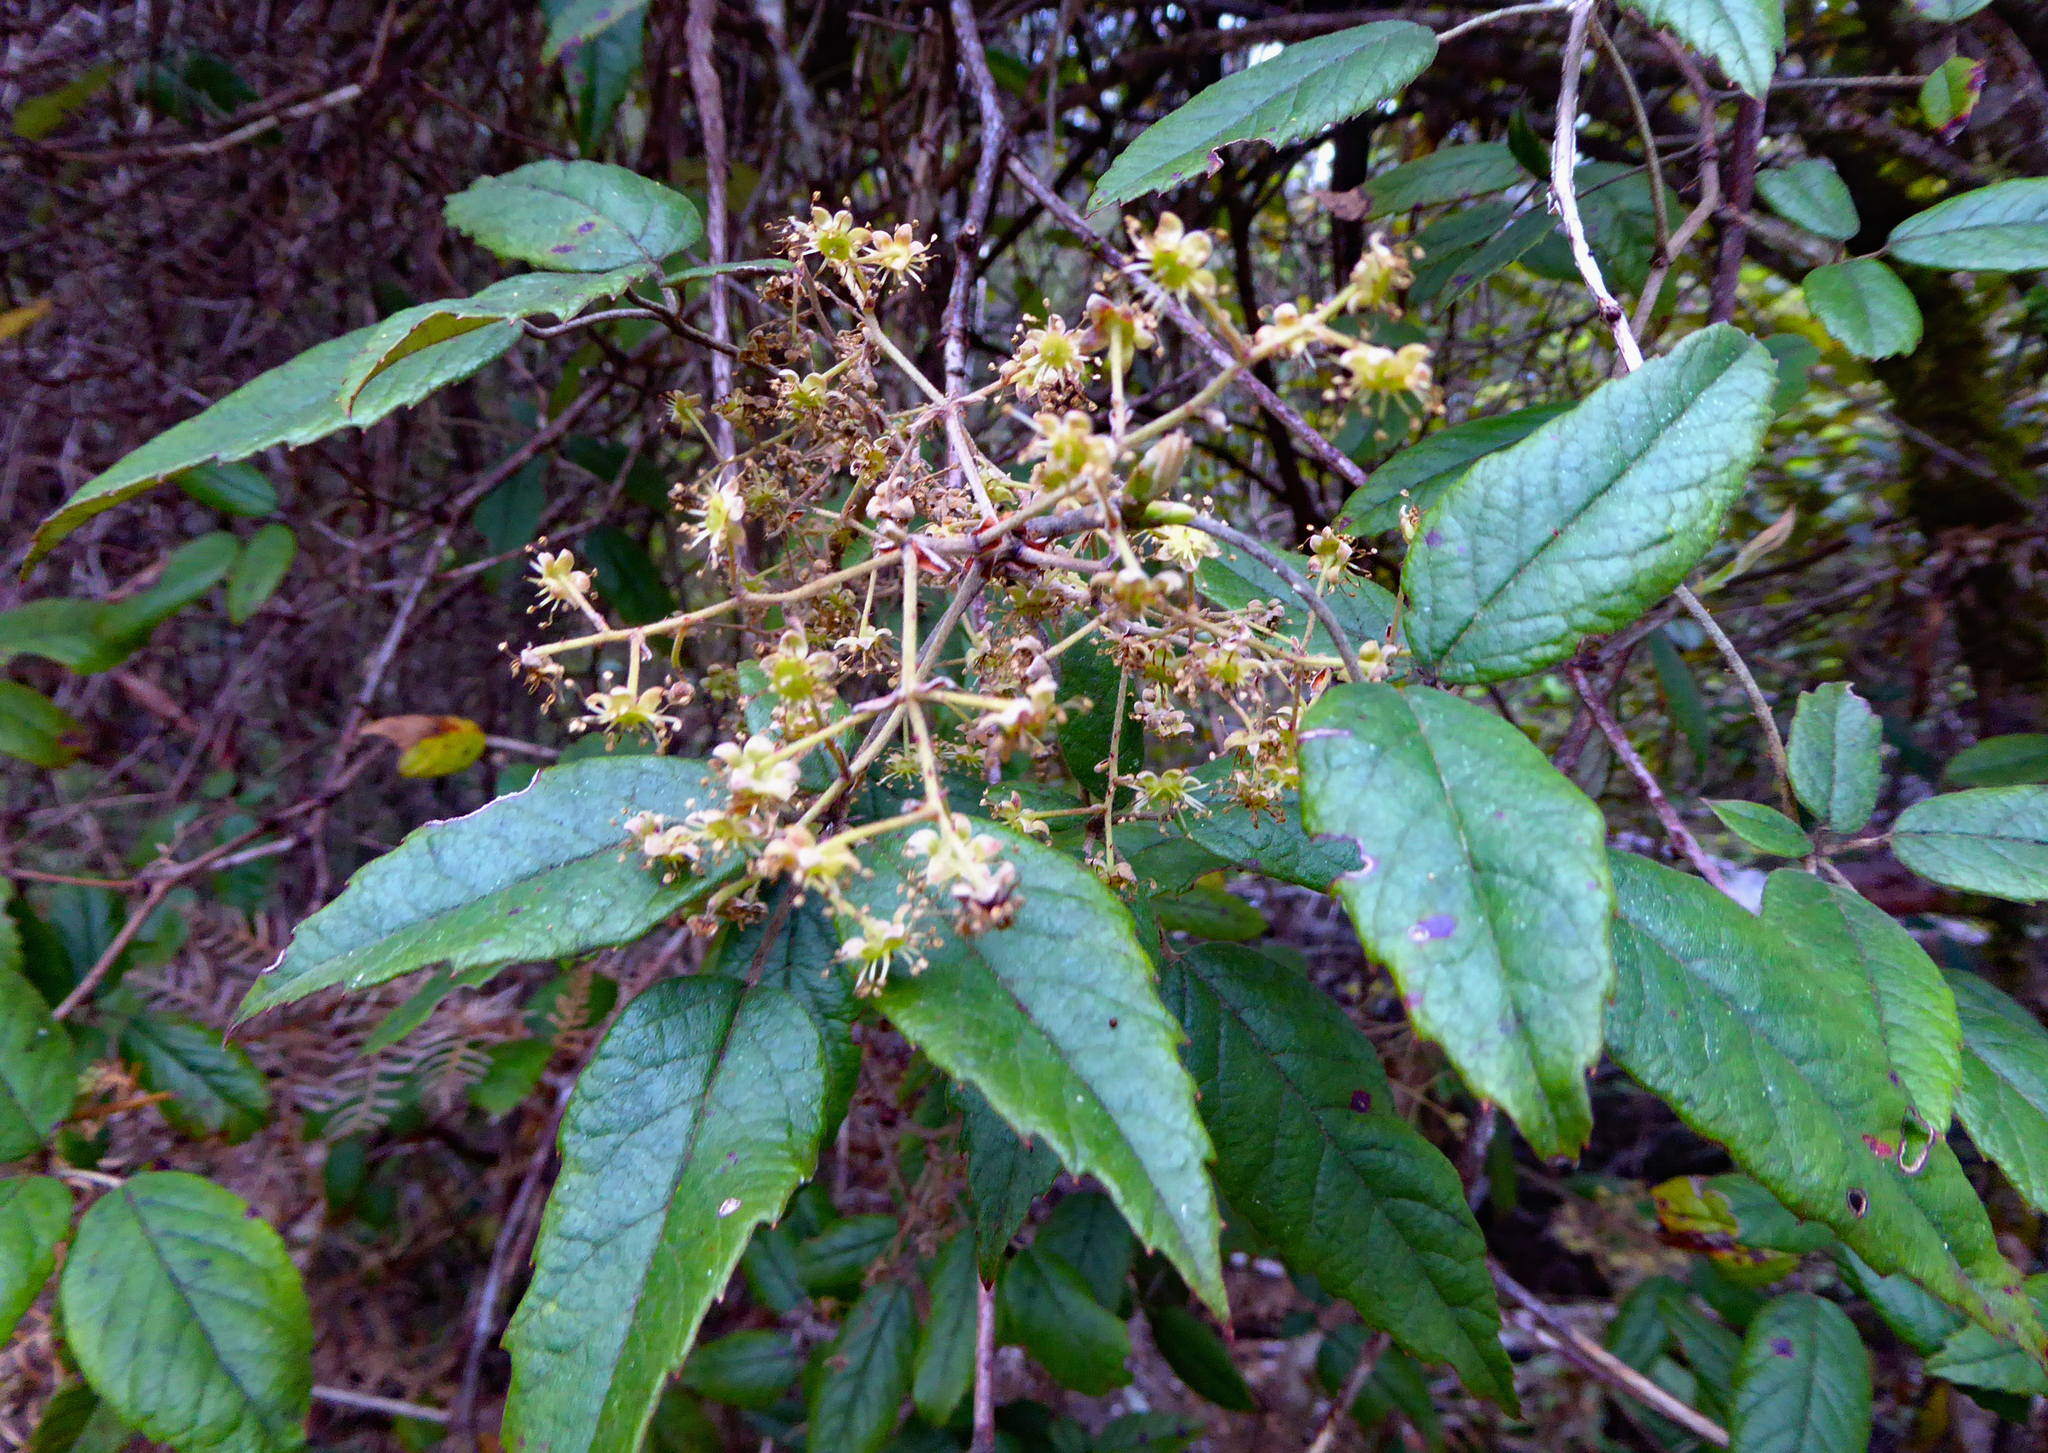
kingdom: Plantae
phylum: Tracheophyta
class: Magnoliopsida
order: Rosales
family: Rosaceae
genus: Rubus
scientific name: Rubus schmidelioides
